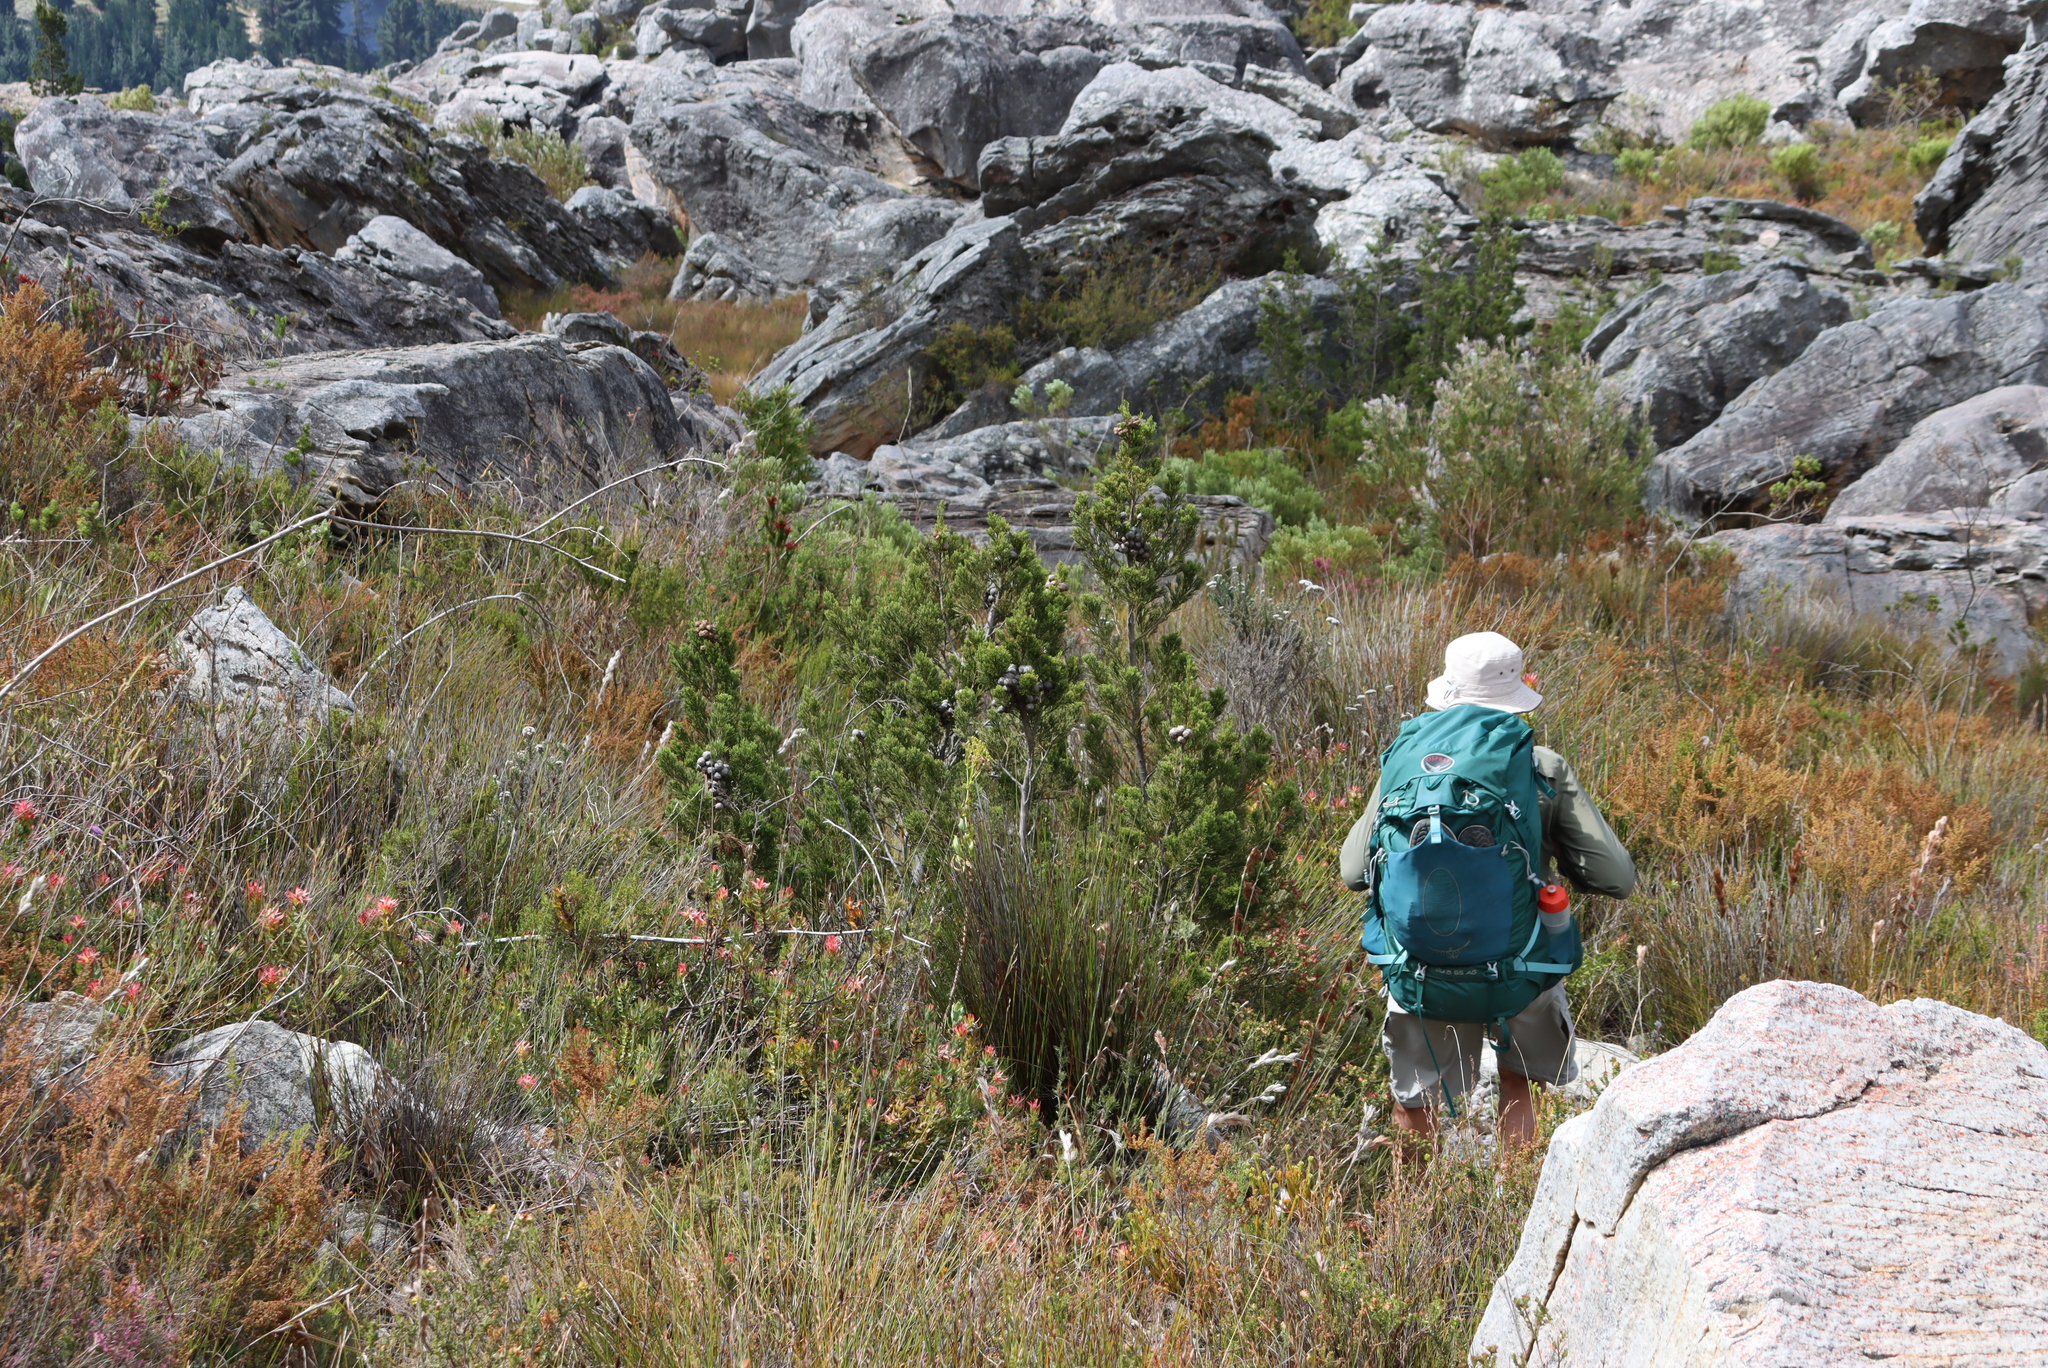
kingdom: Plantae
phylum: Tracheophyta
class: Pinopsida
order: Pinales
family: Cupressaceae
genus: Widdringtonia
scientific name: Widdringtonia nodiflora
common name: Cape cypress
